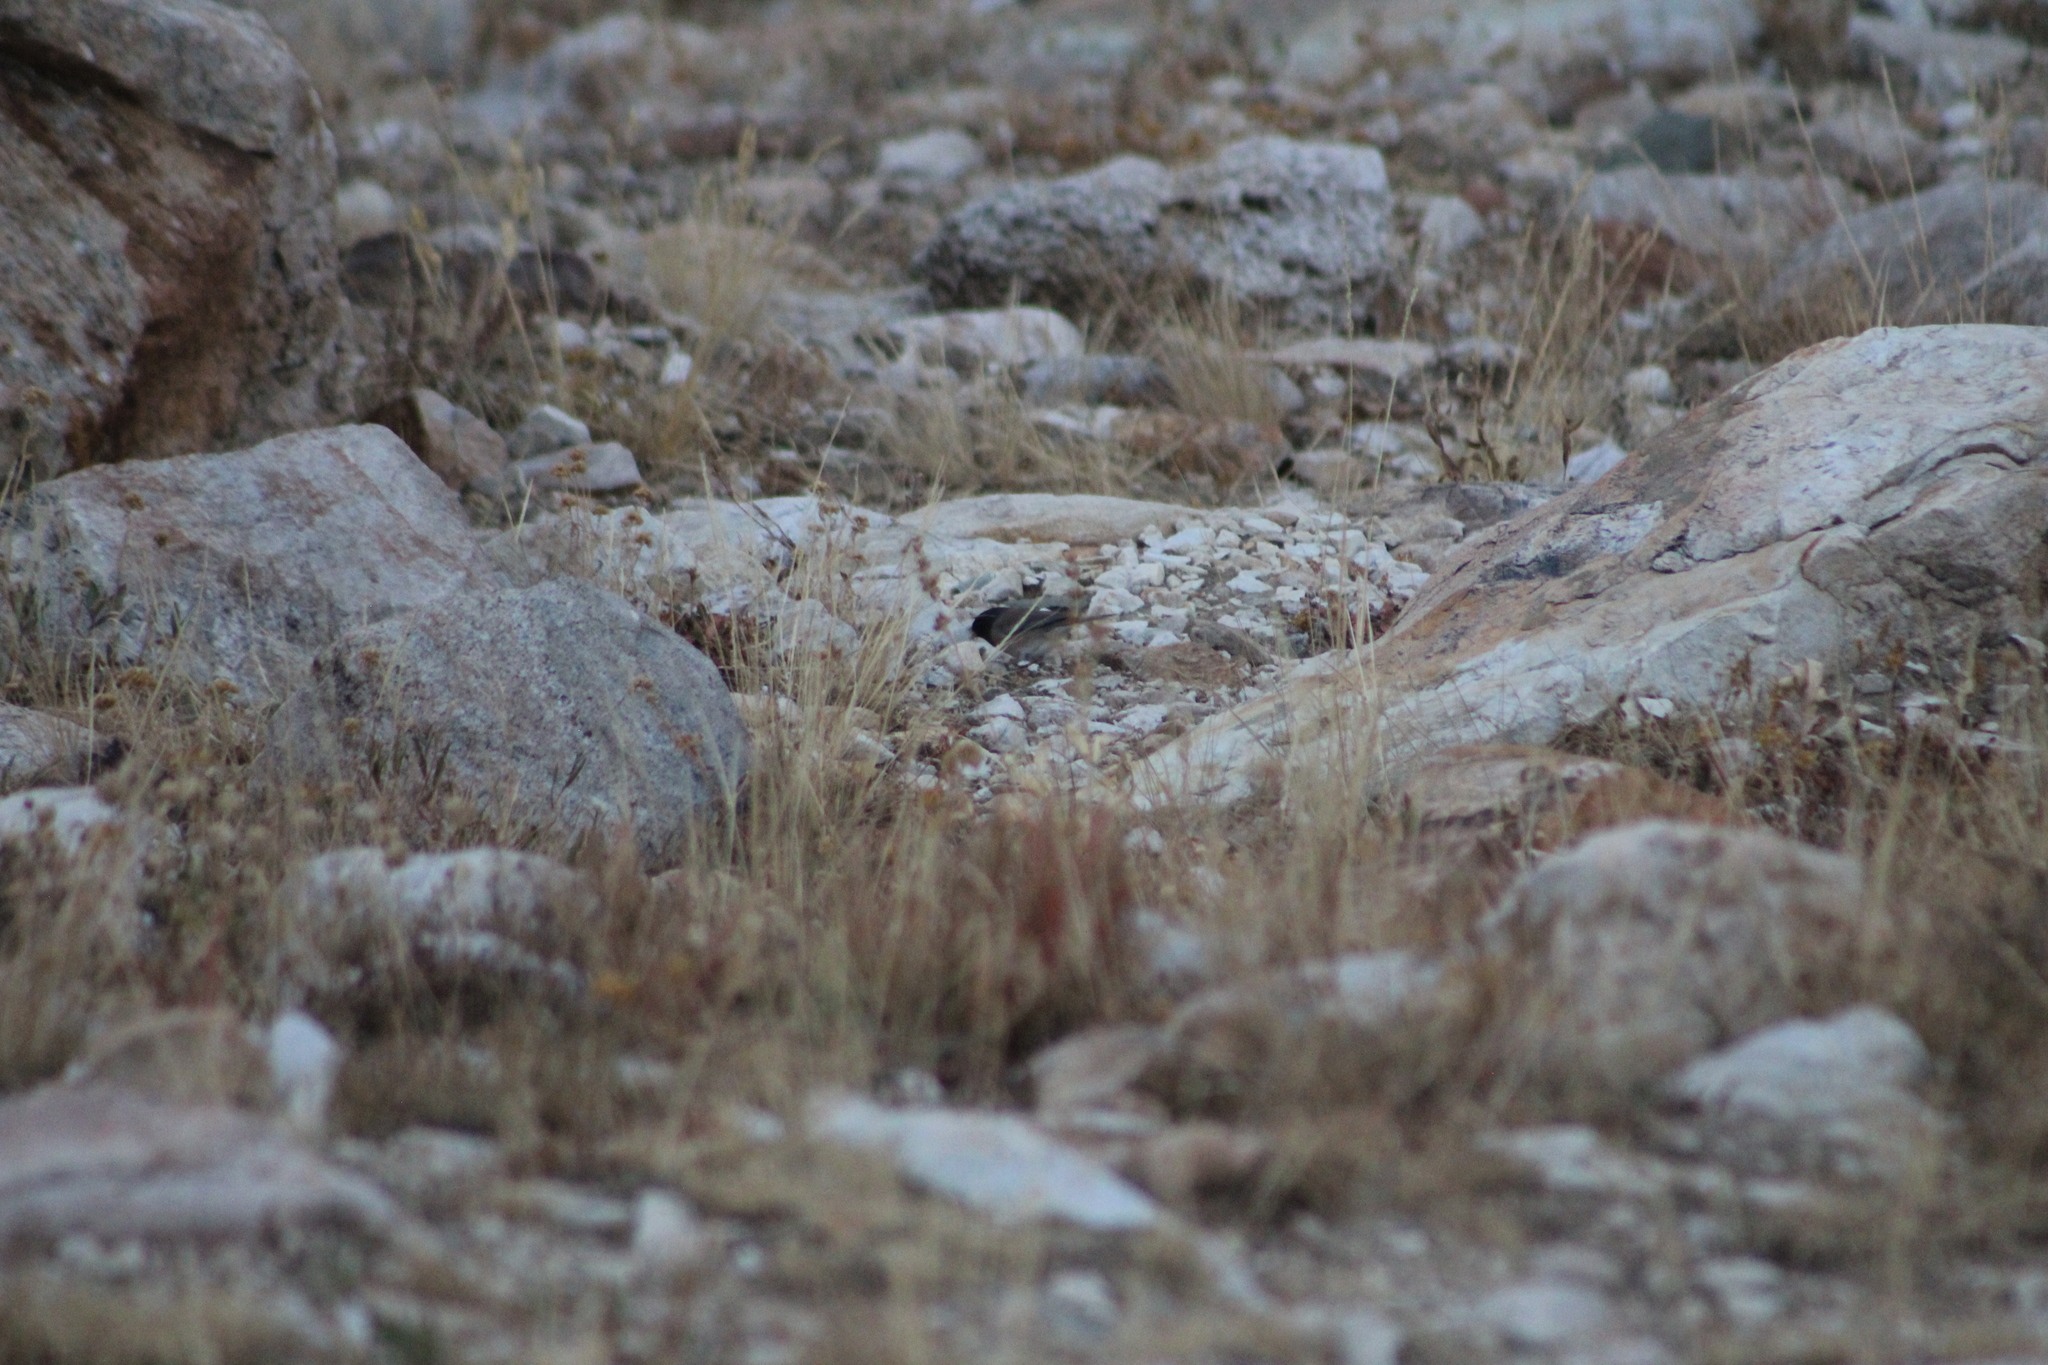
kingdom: Animalia
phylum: Chordata
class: Aves
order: Passeriformes
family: Passerellidae
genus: Junco
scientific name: Junco hyemalis
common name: Dark-eyed junco
